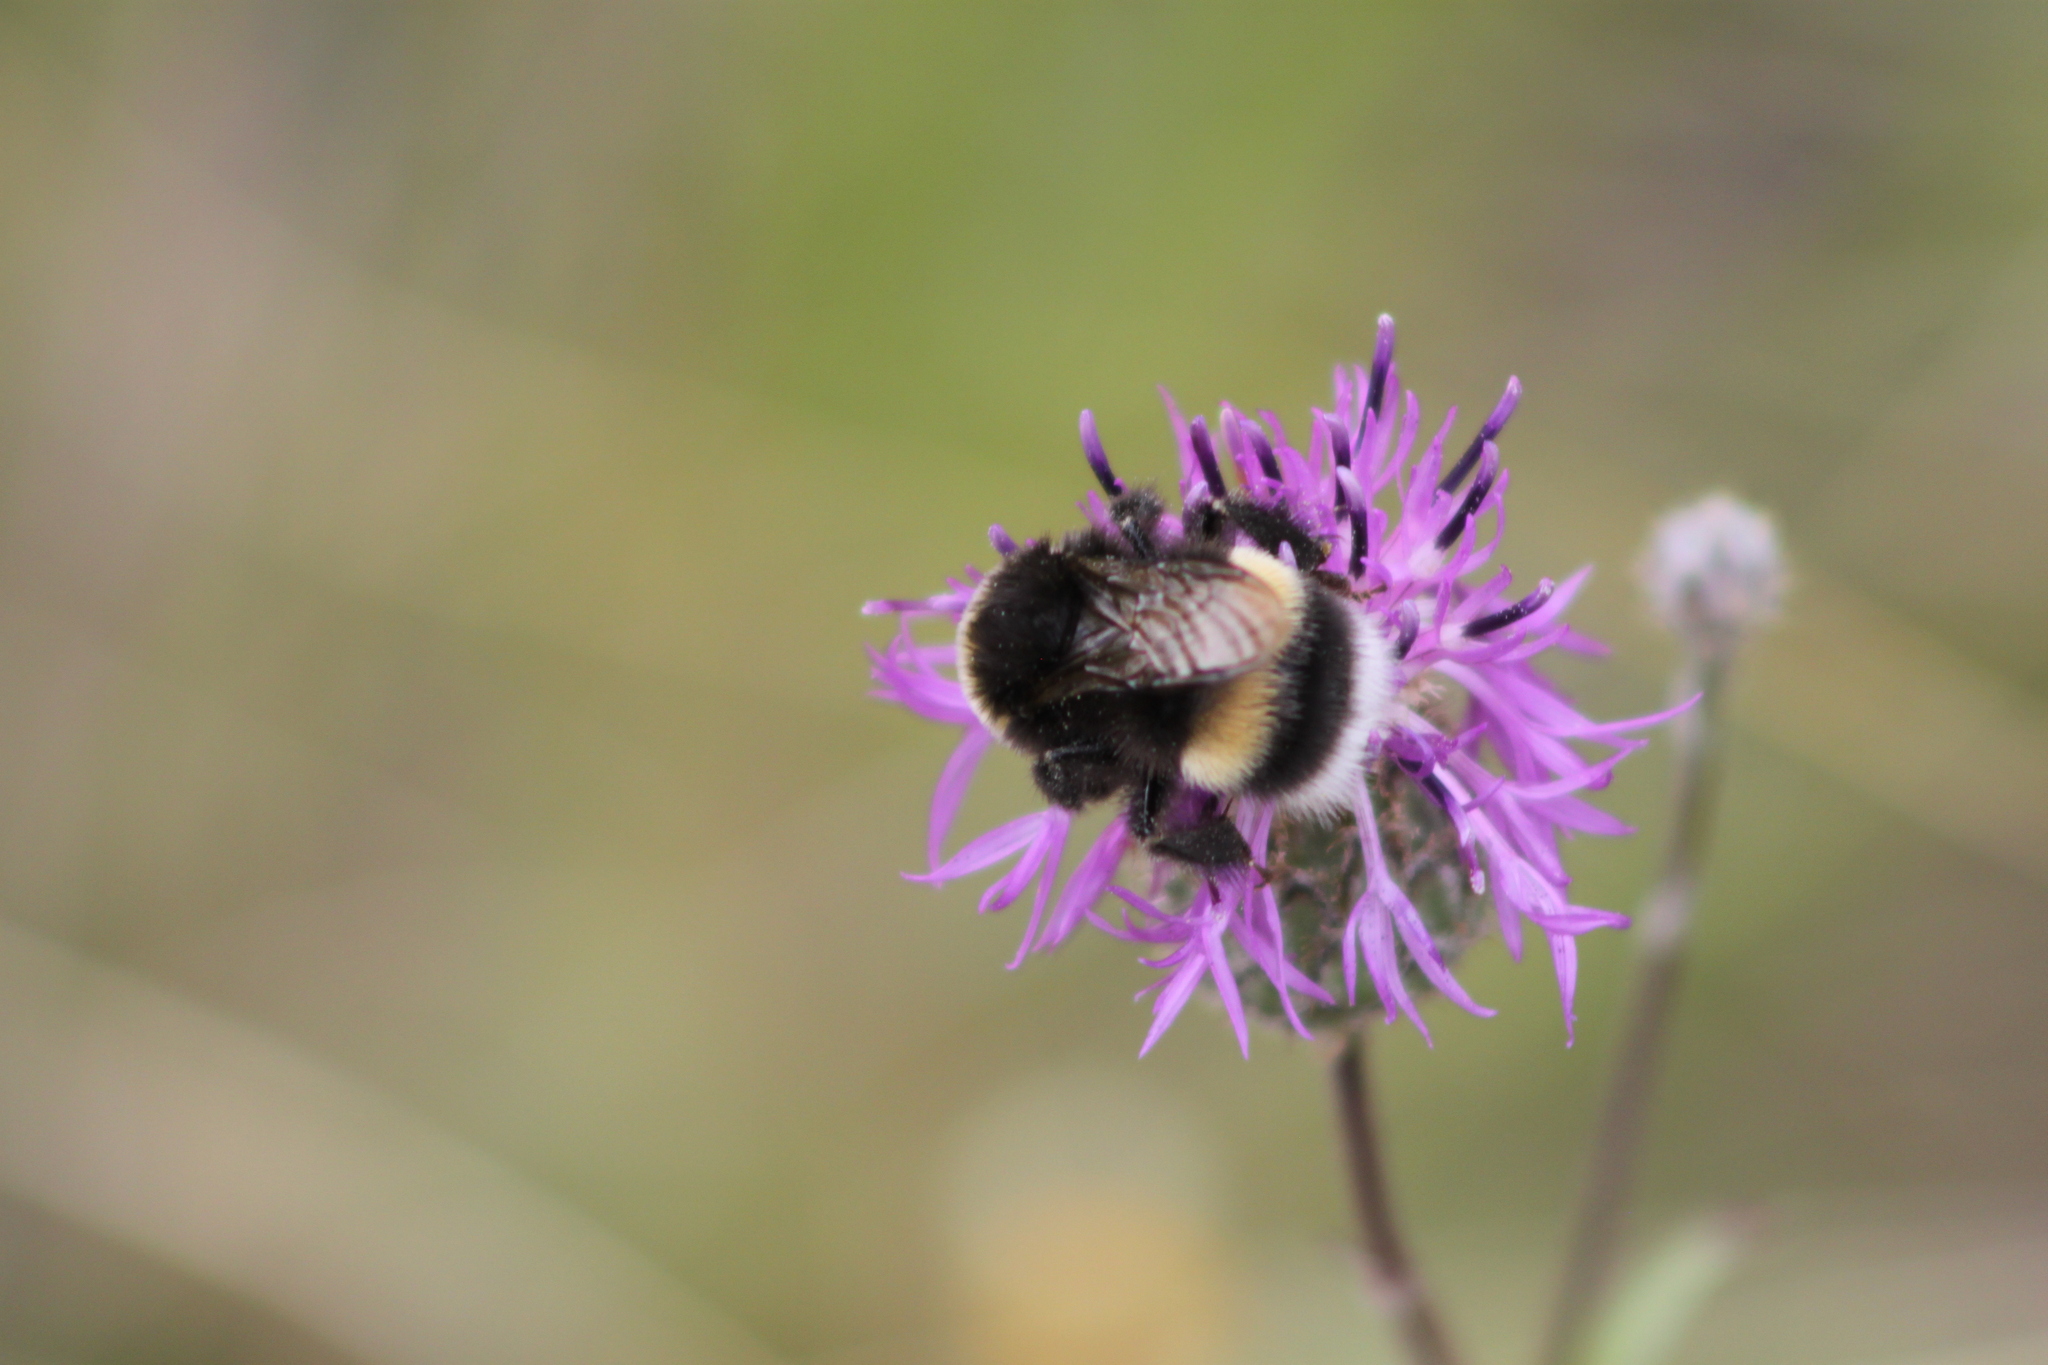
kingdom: Animalia
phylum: Arthropoda
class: Insecta
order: Hymenoptera
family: Apidae
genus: Bombus
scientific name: Bombus
